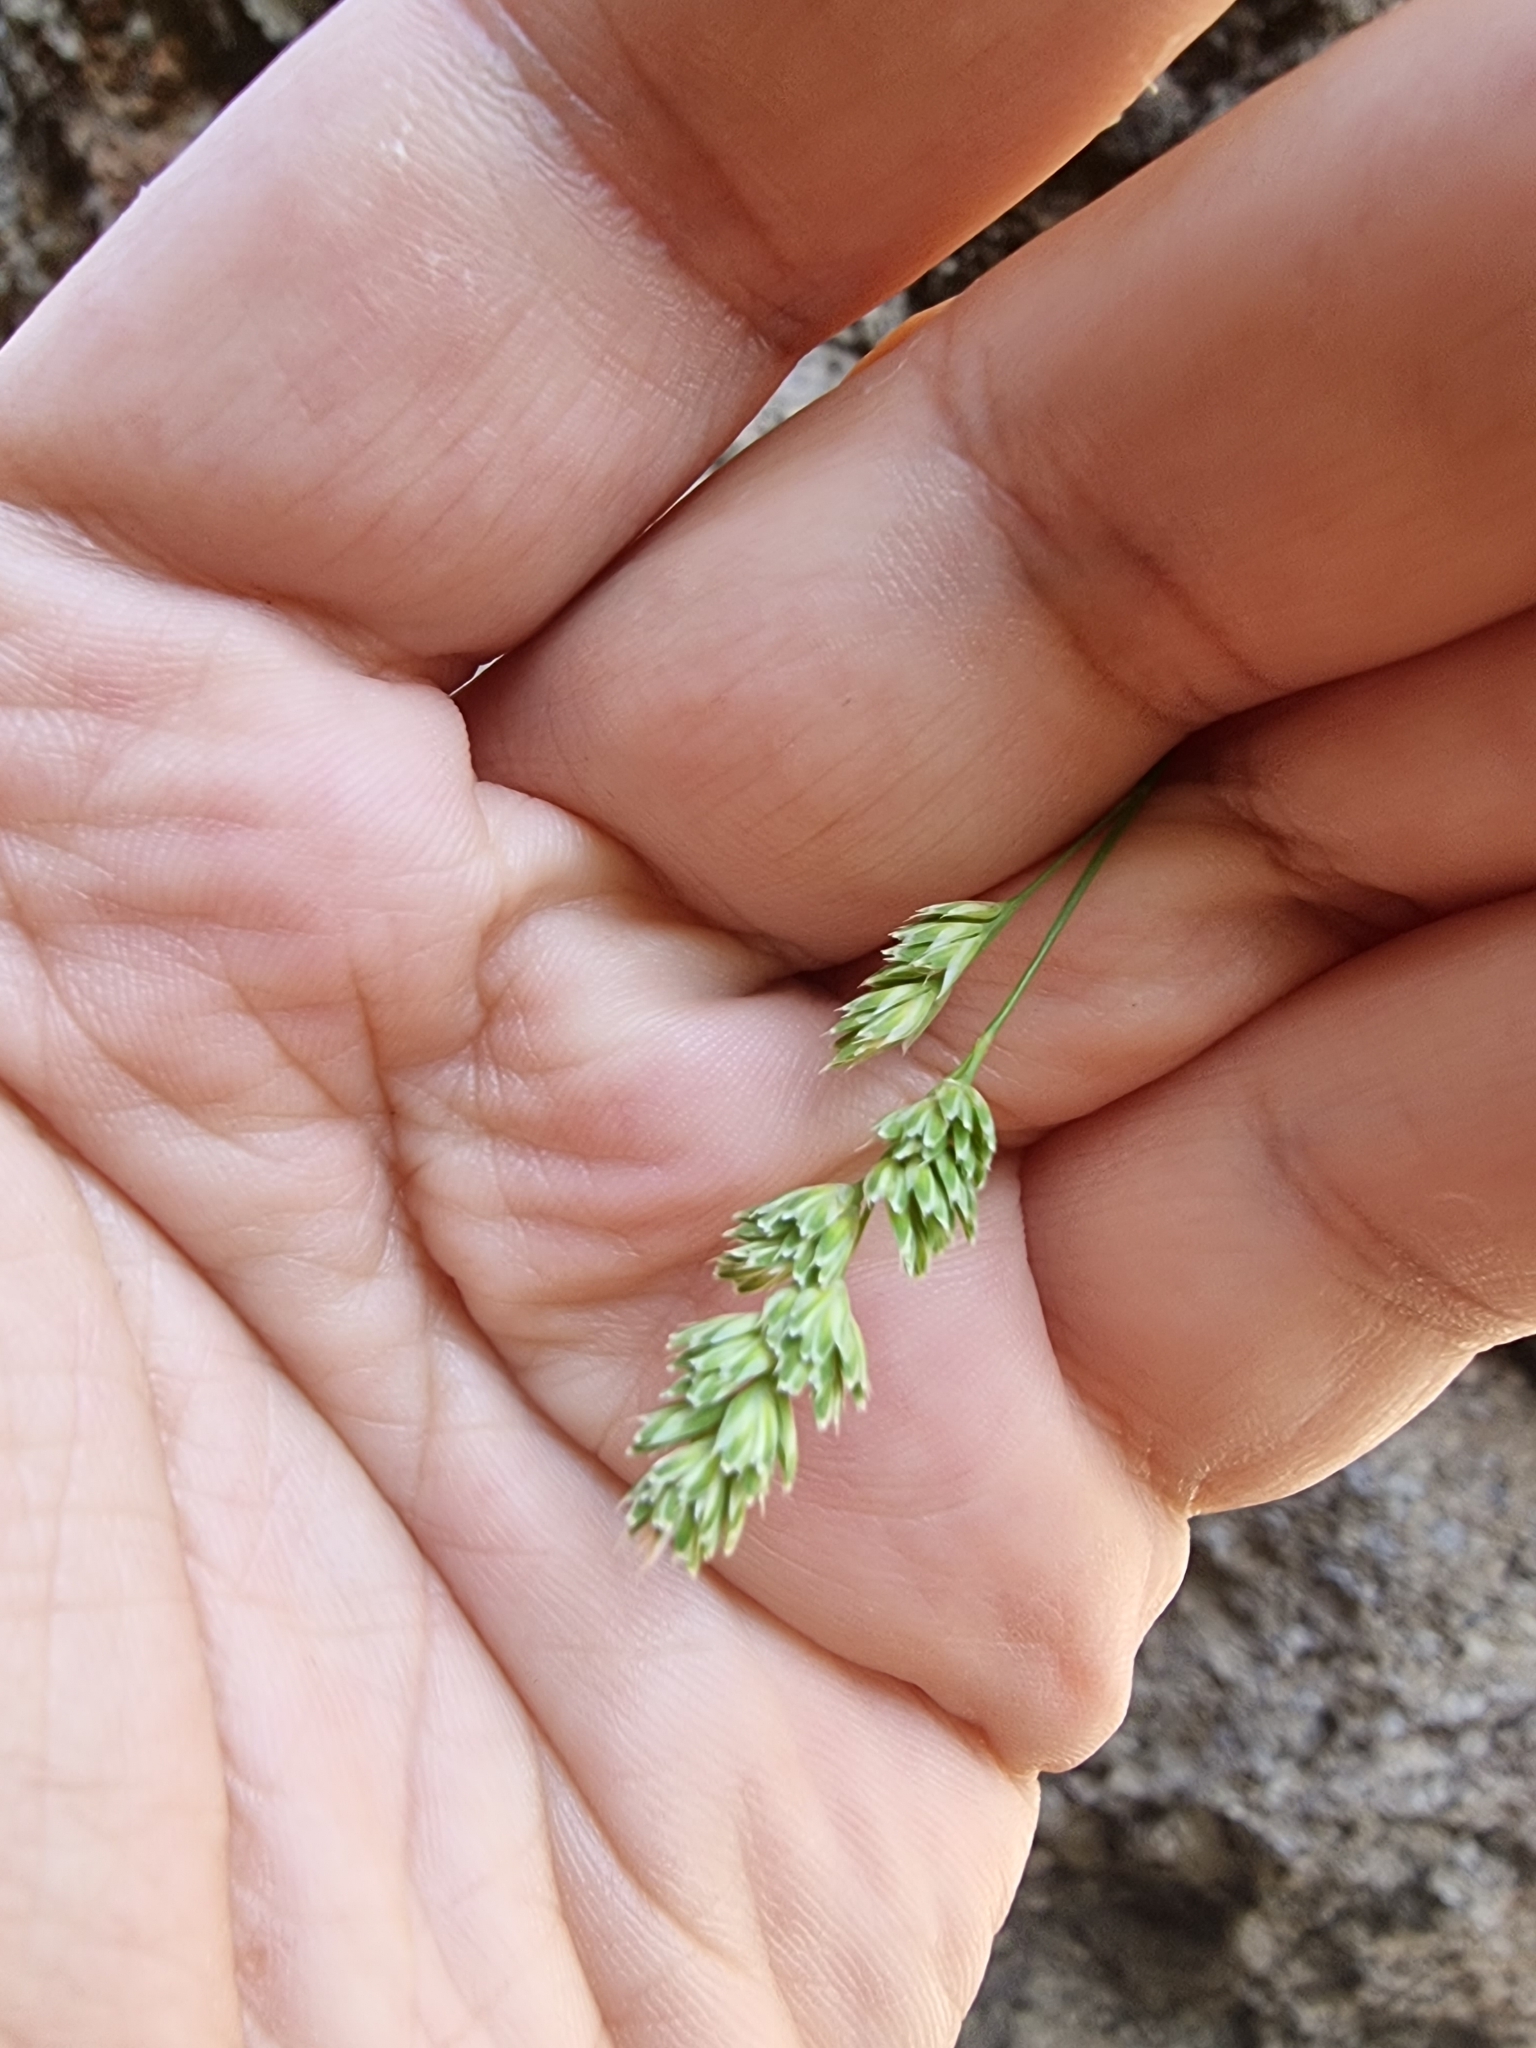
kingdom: Plantae
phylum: Tracheophyta
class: Liliopsida
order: Poales
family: Poaceae
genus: Dactylis
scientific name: Dactylis smithii
